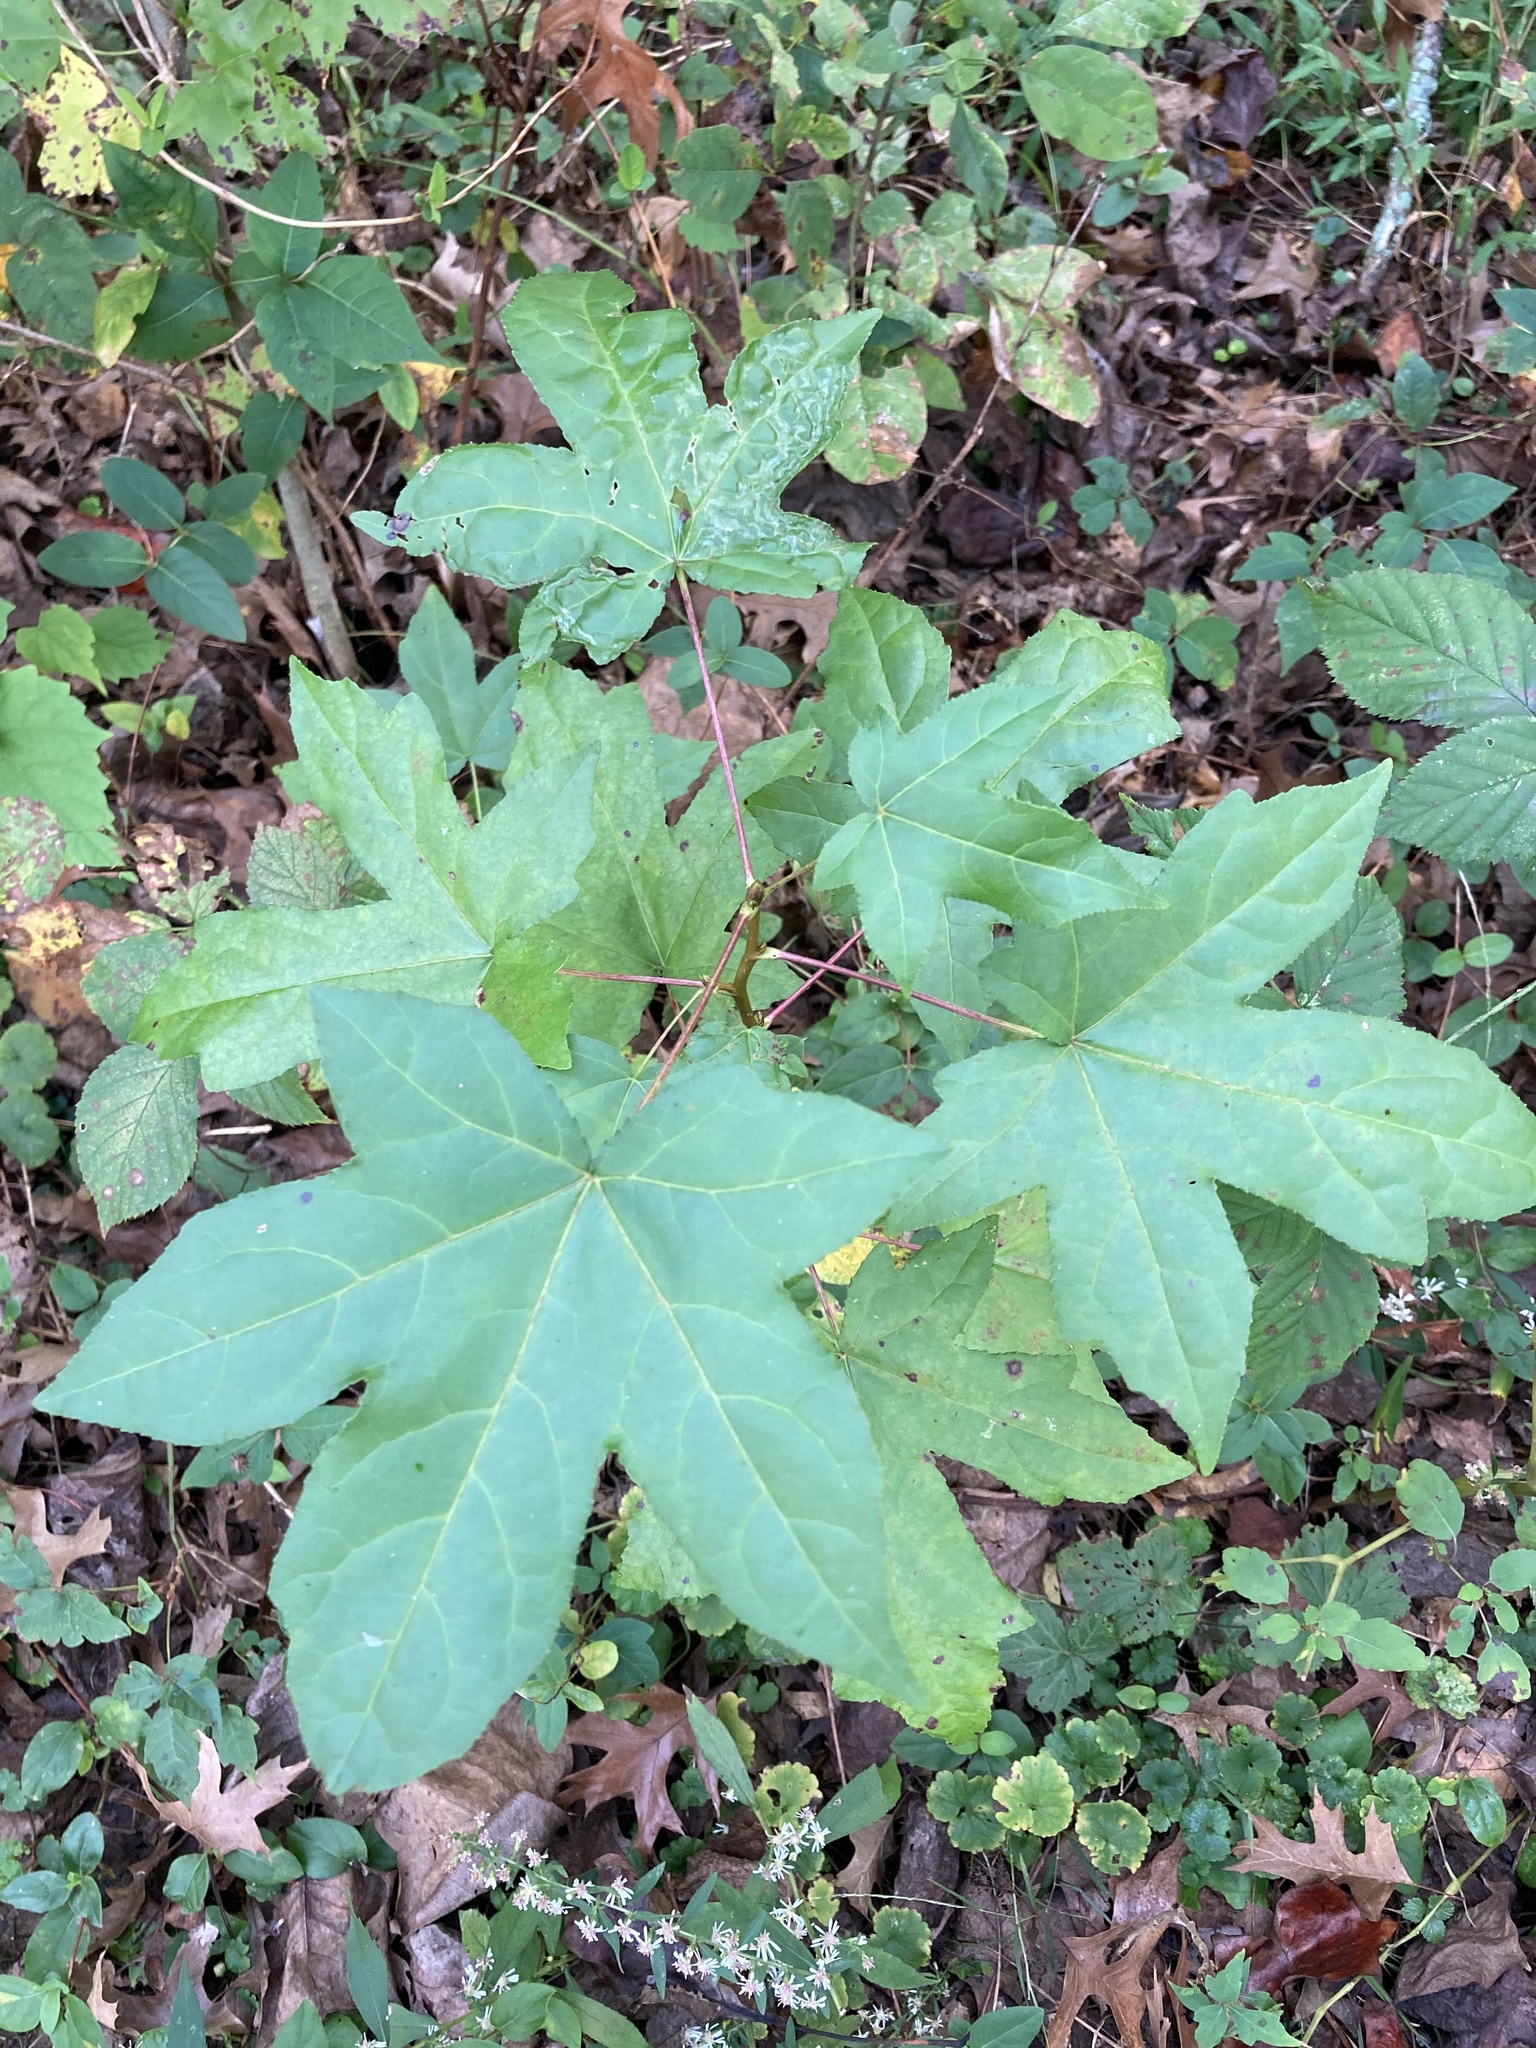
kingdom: Plantae
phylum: Tracheophyta
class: Magnoliopsida
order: Saxifragales
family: Altingiaceae
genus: Liquidambar
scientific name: Liquidambar styraciflua
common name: Sweet gum
